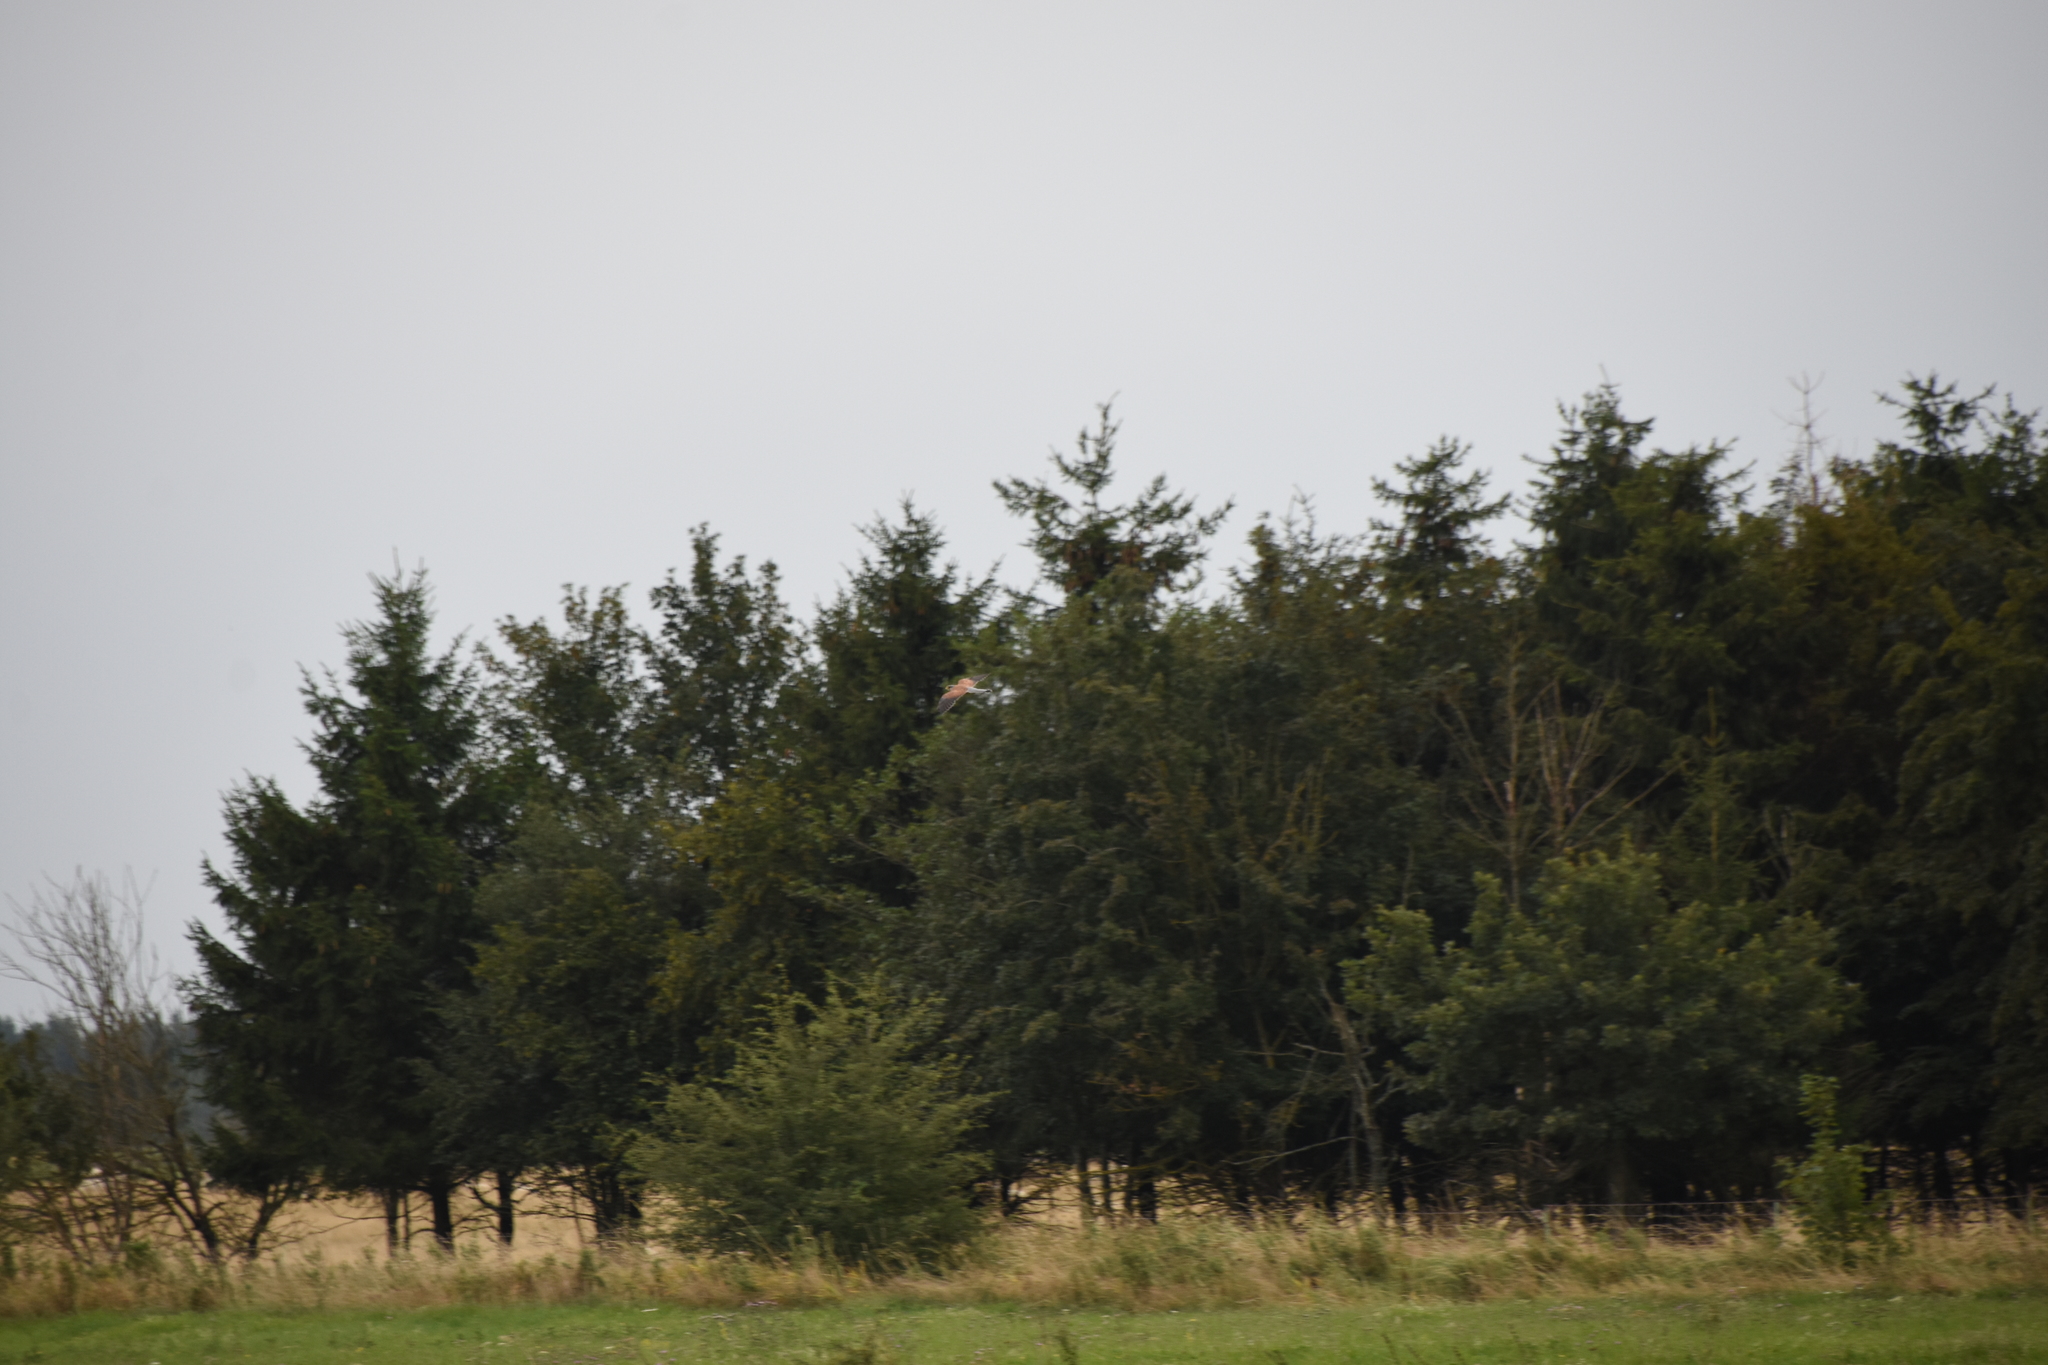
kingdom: Animalia
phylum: Chordata
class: Aves
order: Falconiformes
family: Falconidae
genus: Falco
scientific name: Falco tinnunculus
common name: Common kestrel
